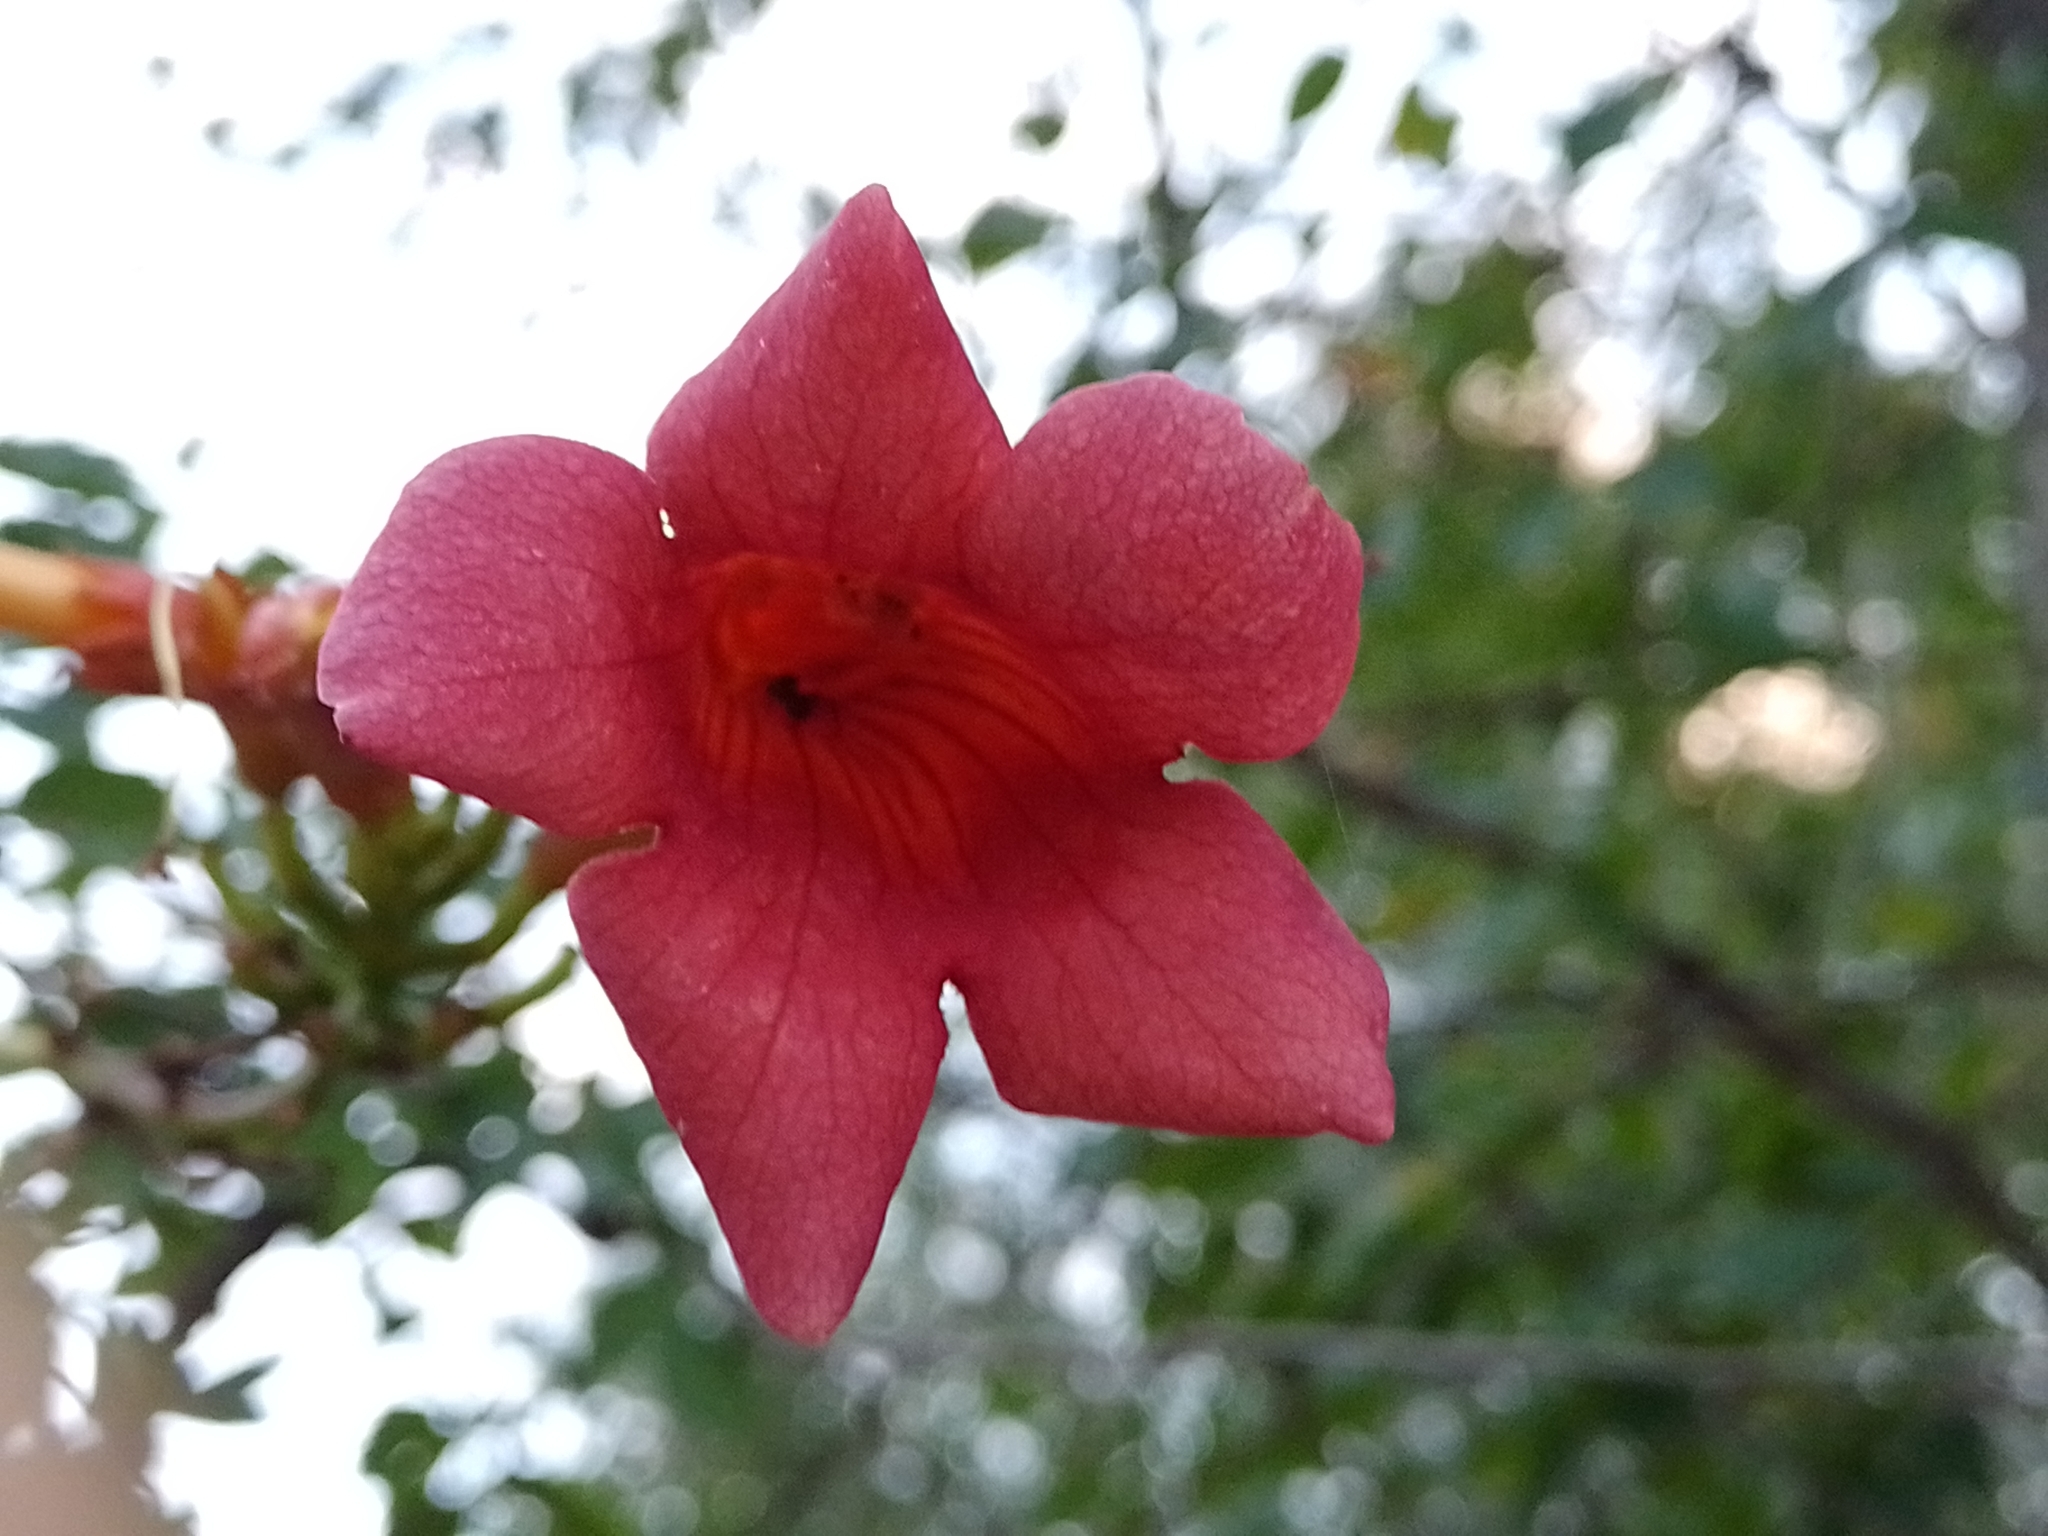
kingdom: Plantae
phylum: Tracheophyta
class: Magnoliopsida
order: Lamiales
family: Bignoniaceae
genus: Campsis
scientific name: Campsis radicans
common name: Trumpet-creeper
